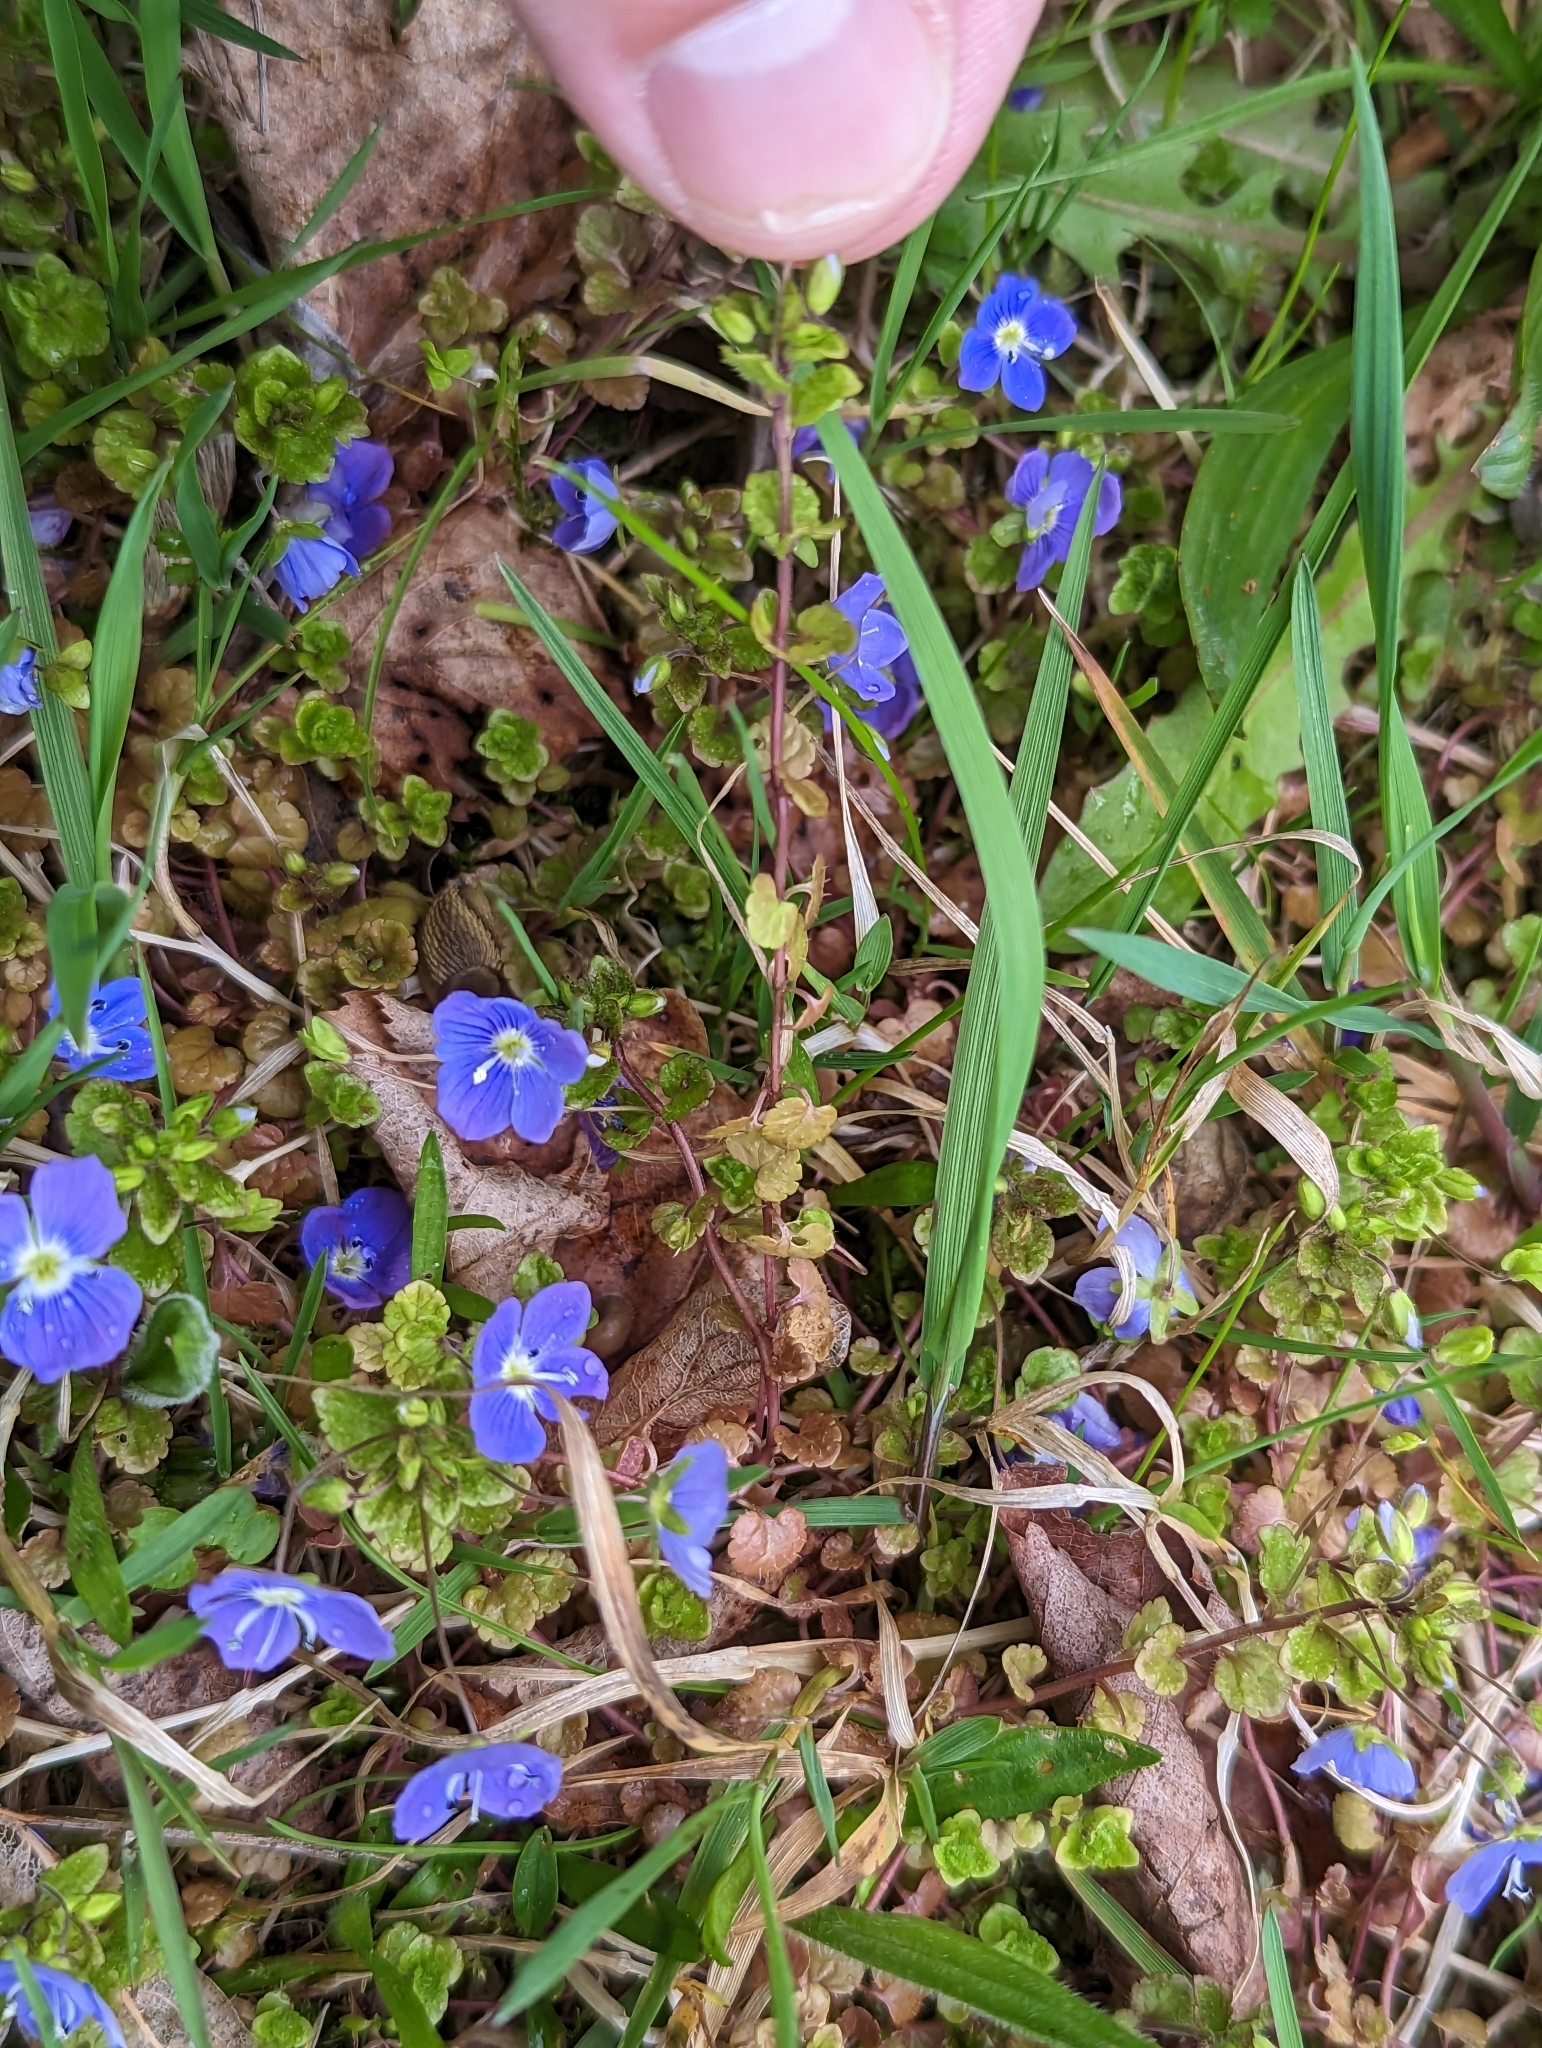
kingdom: Plantae
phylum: Tracheophyta
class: Magnoliopsida
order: Lamiales
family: Plantaginaceae
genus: Veronica
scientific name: Veronica filiformis
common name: Slender speedwell
